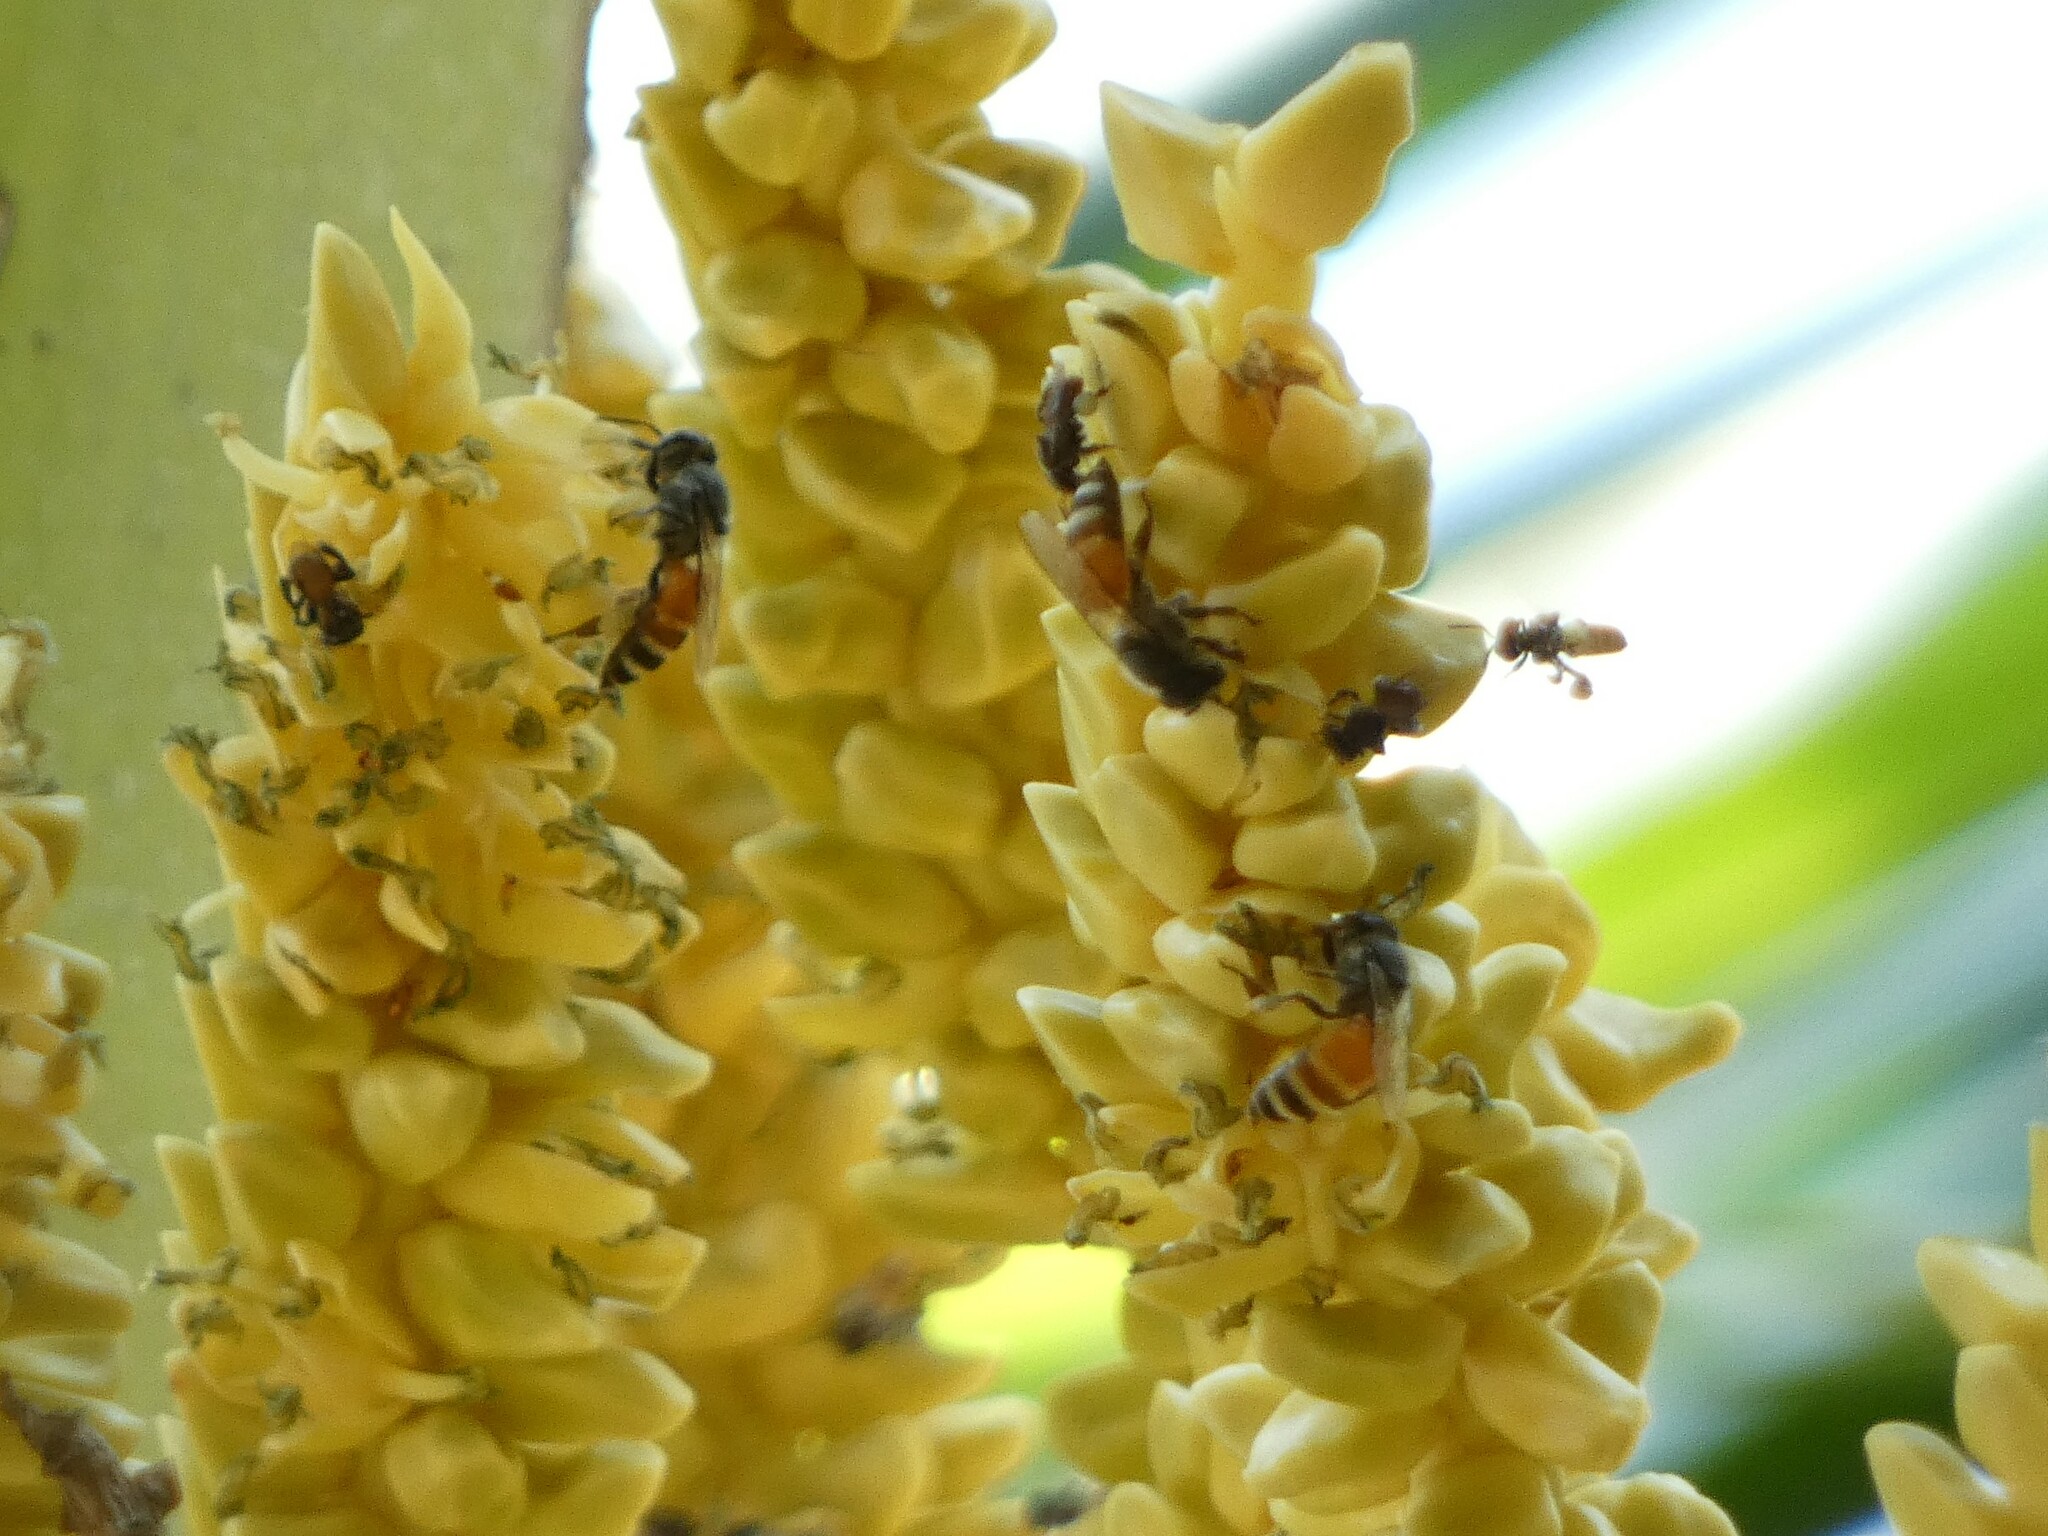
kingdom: Animalia
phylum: Arthropoda
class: Insecta
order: Hymenoptera
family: Apidae
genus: Apis
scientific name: Apis florea
